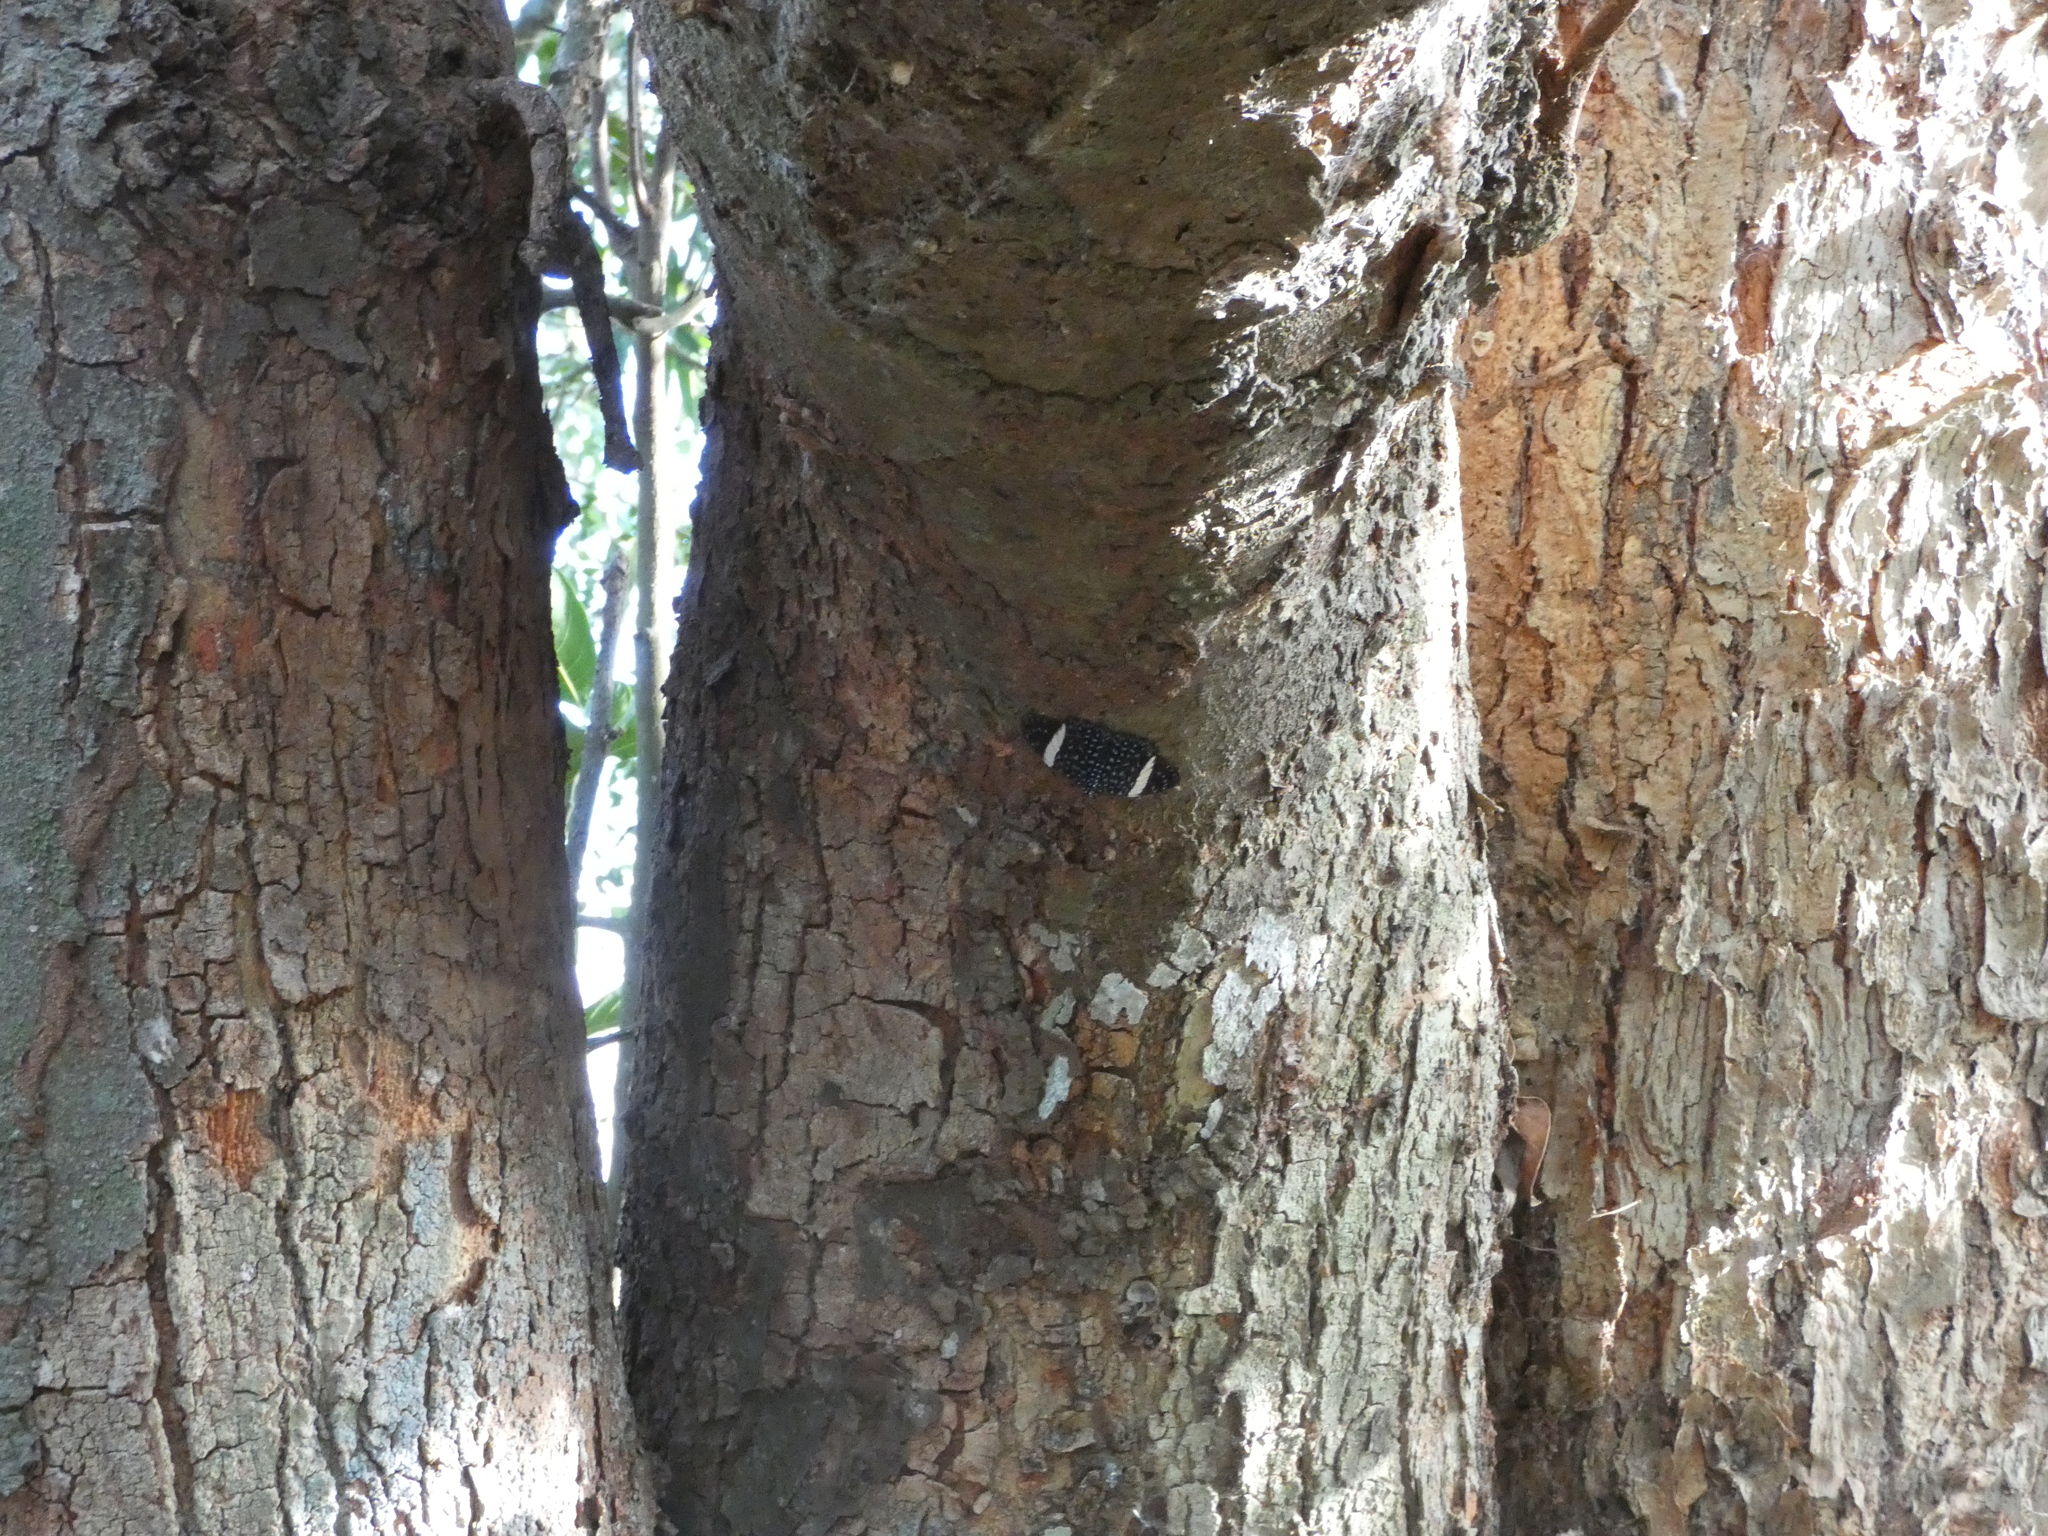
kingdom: Animalia
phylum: Arthropoda
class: Insecta
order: Lepidoptera
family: Nymphalidae
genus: Hamadryas
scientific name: Hamadryas laodamia
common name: Starry night cracker
